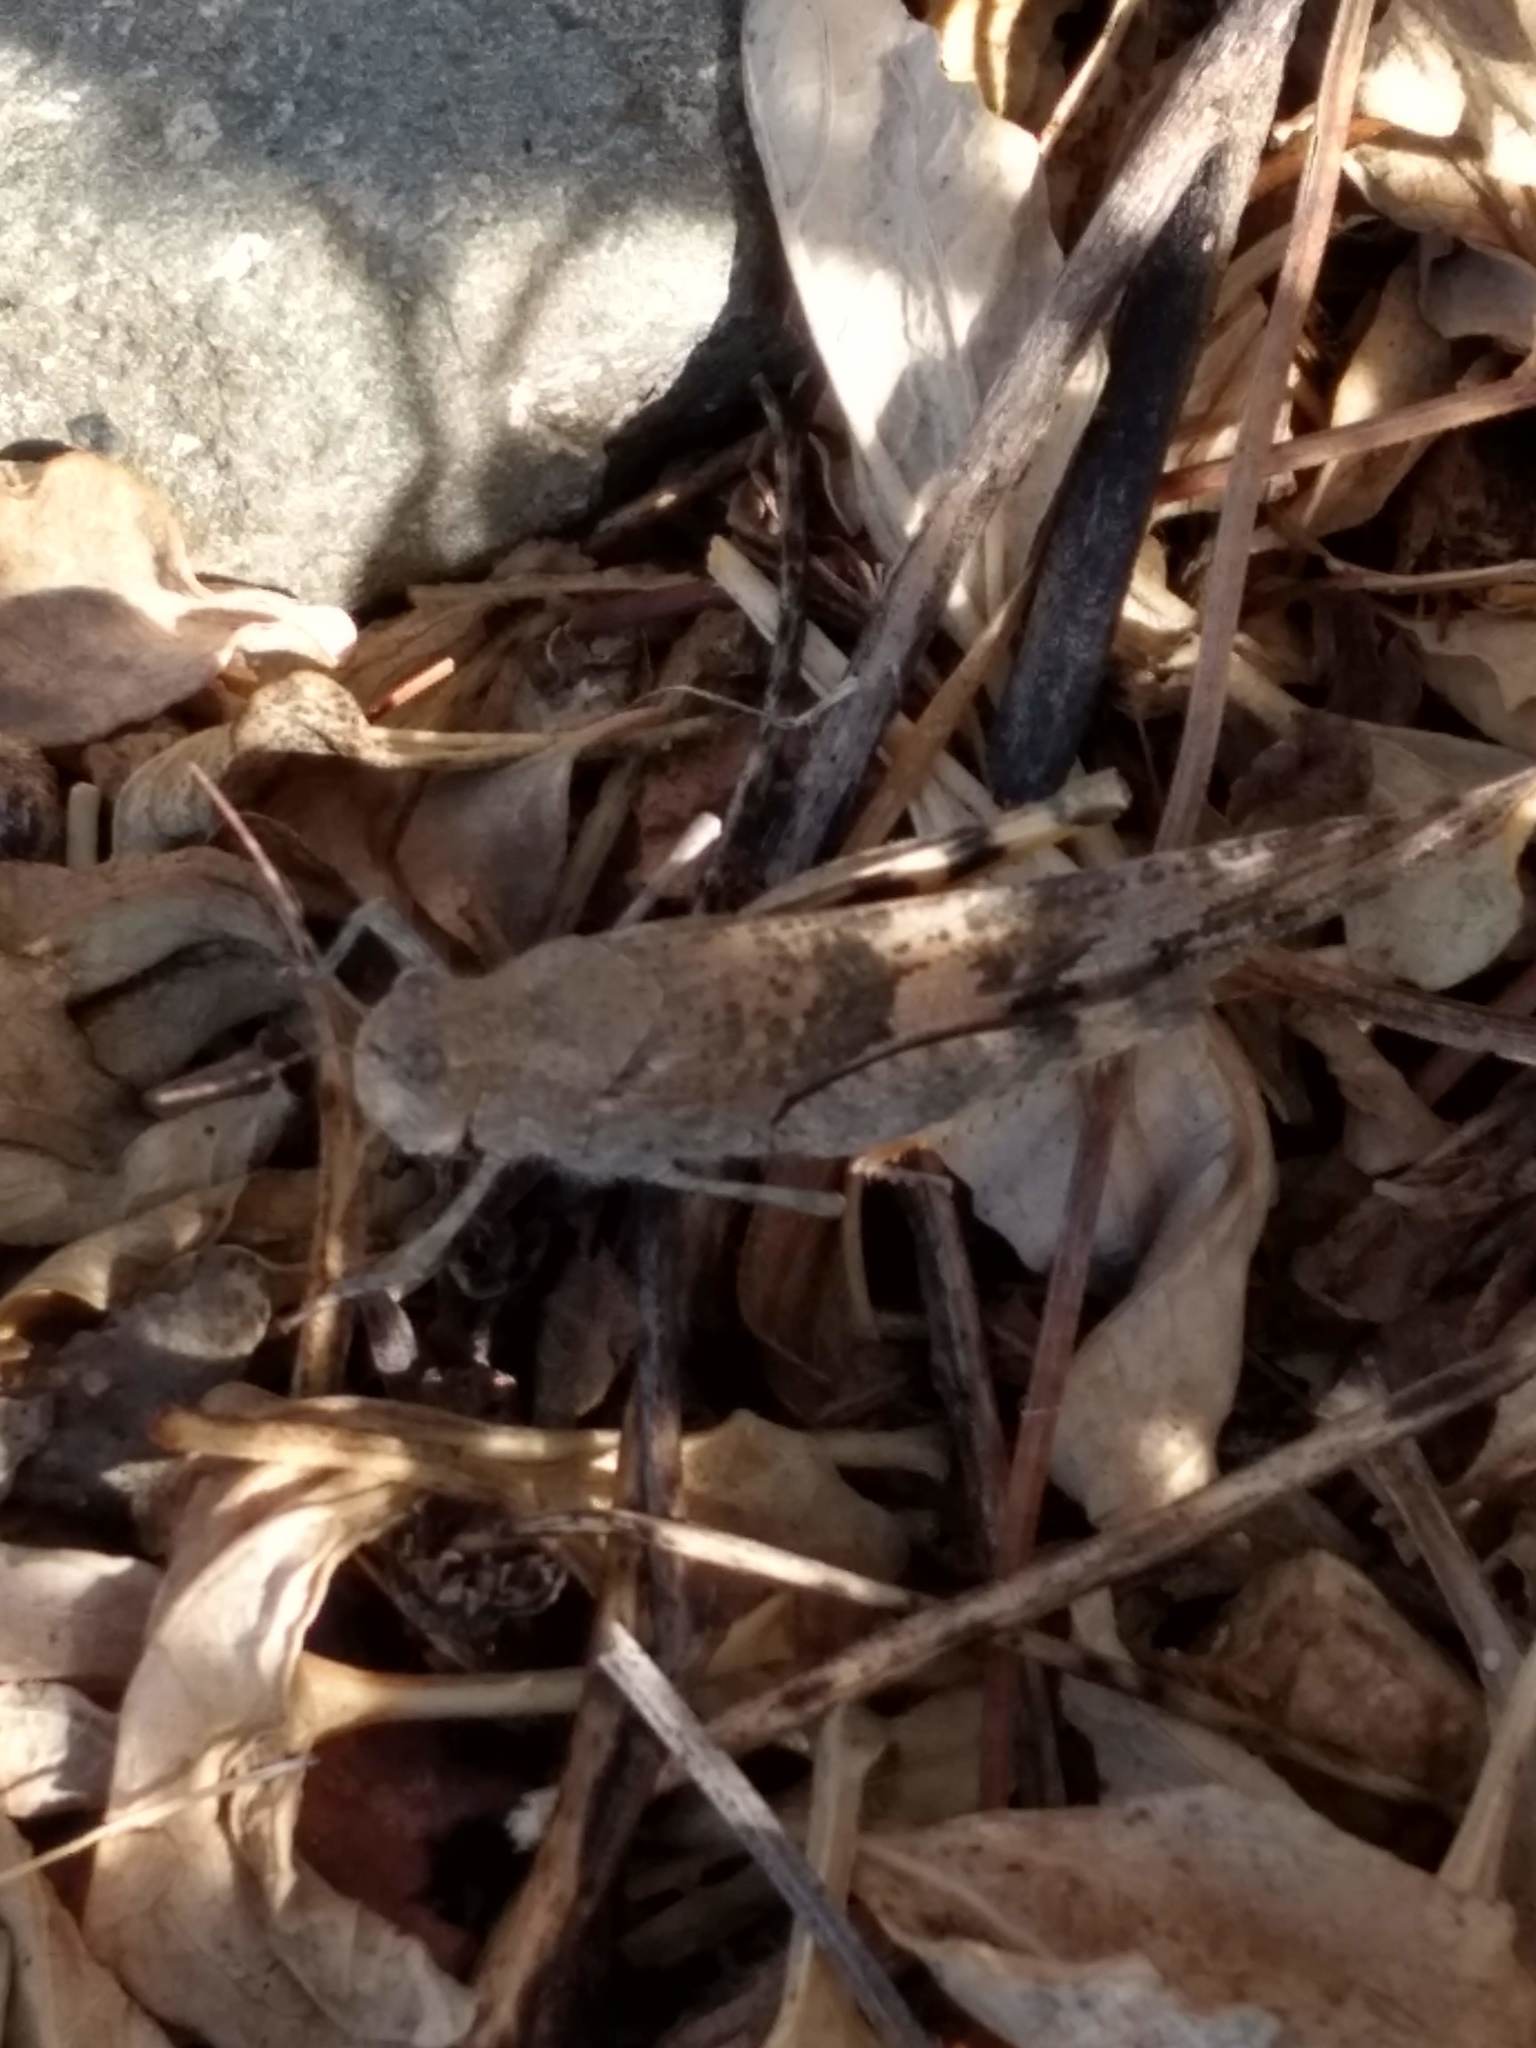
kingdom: Animalia
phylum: Arthropoda
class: Insecta
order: Orthoptera
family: Acrididae
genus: Trimerotropis
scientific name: Trimerotropis pallidipennis
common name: Pallid-winged grasshopper
